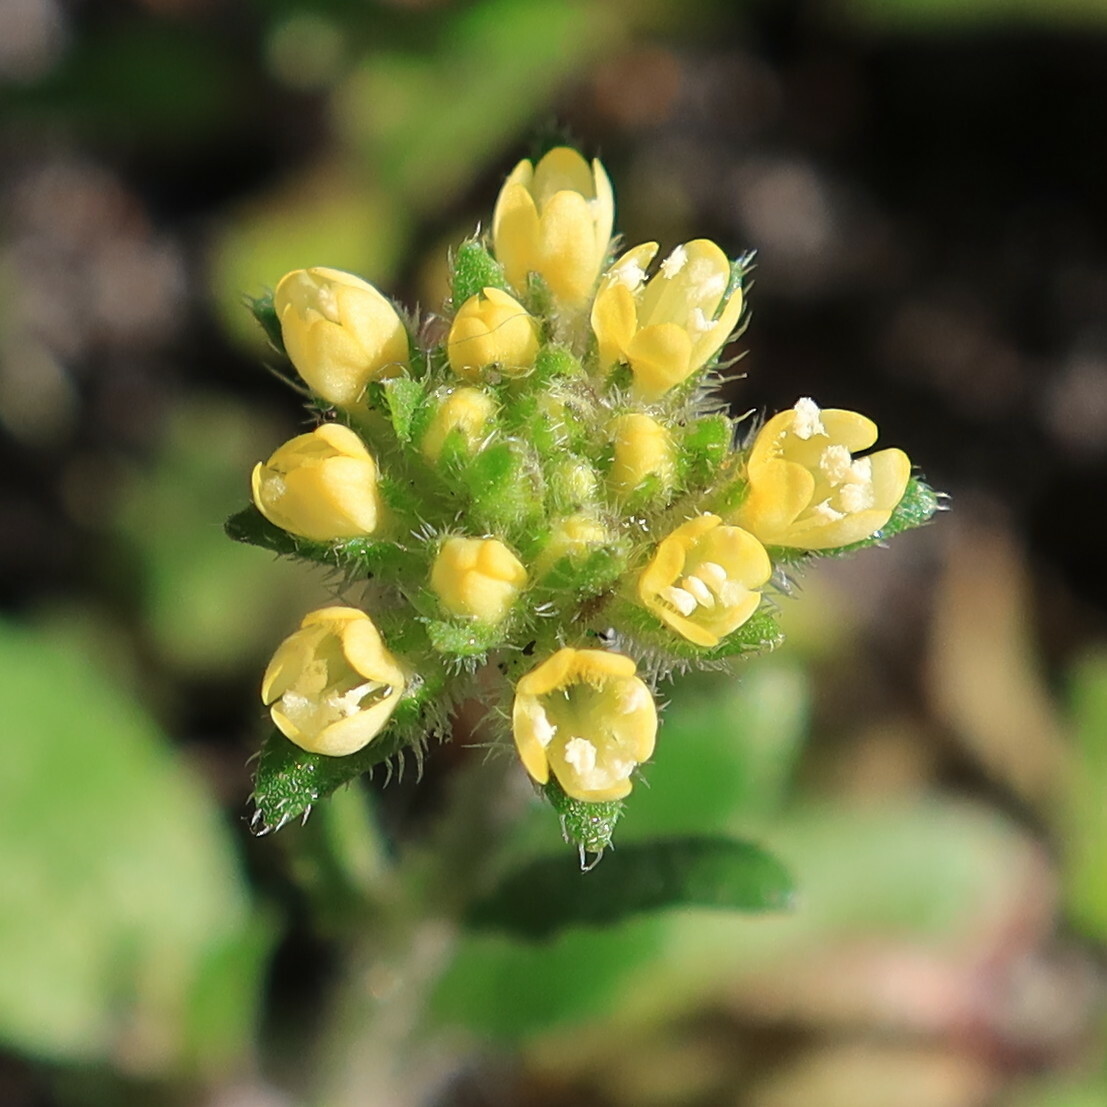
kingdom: Plantae
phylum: Tracheophyta
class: Magnoliopsida
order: Lamiales
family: Scrophulariaceae
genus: Phyllopodium
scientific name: Phyllopodium cordatum
